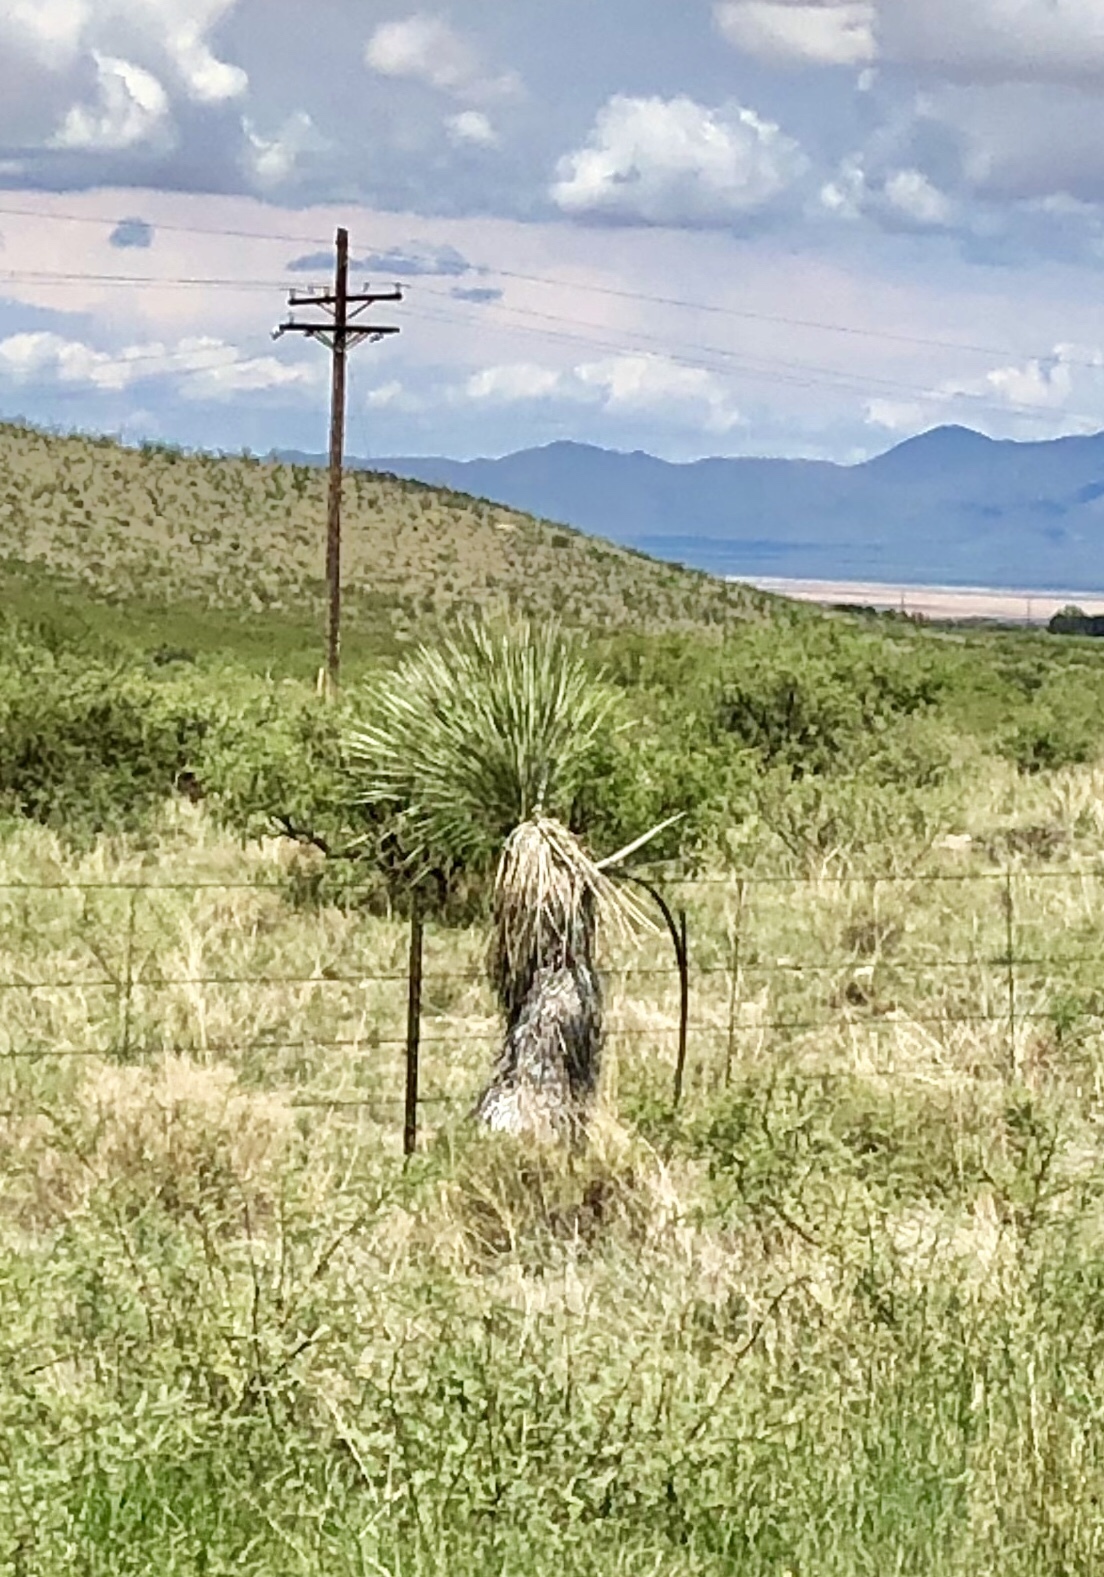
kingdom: Plantae
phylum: Tracheophyta
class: Liliopsida
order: Asparagales
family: Asparagaceae
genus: Yucca
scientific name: Yucca elata
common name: Palmella
